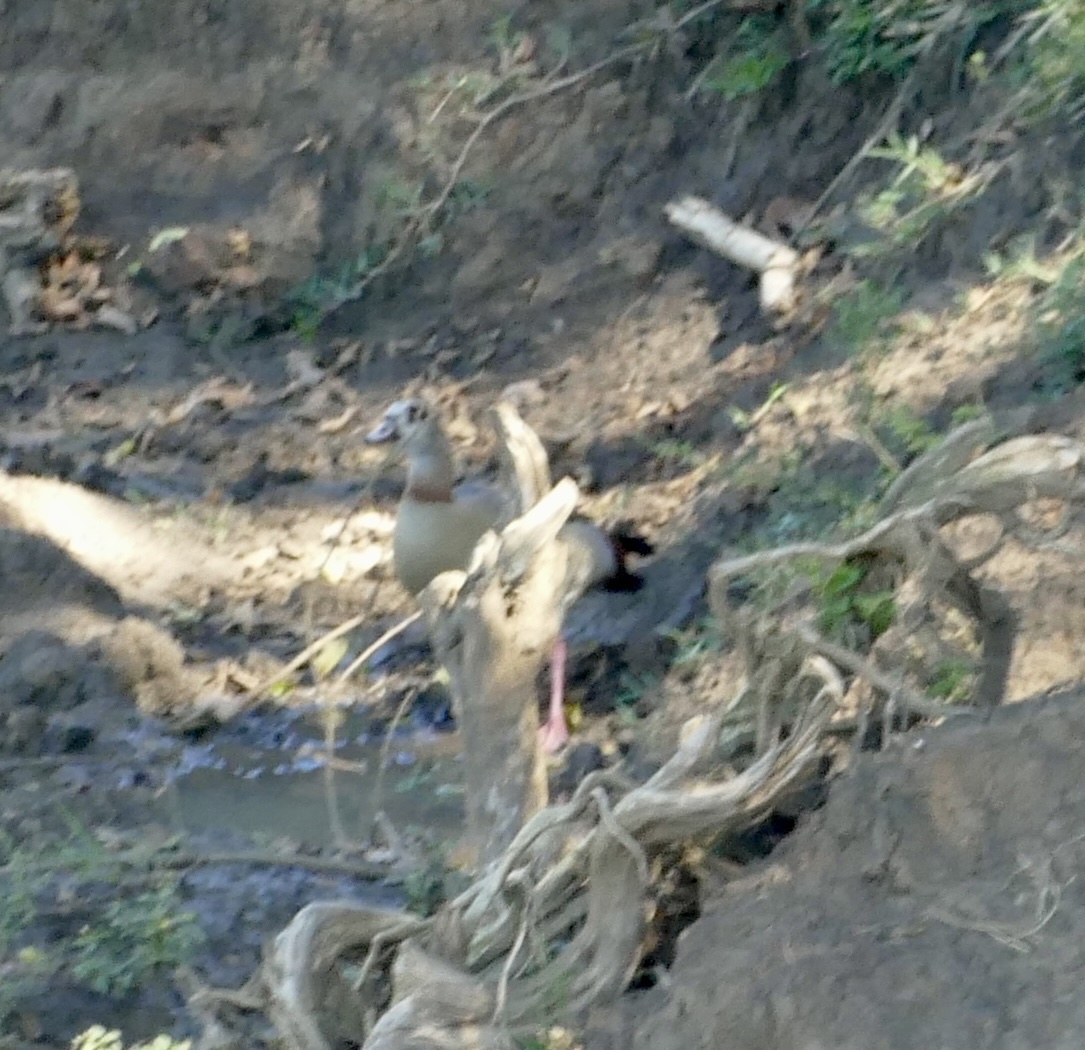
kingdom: Animalia
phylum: Chordata
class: Aves
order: Anseriformes
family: Anatidae
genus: Alopochen
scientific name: Alopochen aegyptiaca
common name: Egyptian goose
